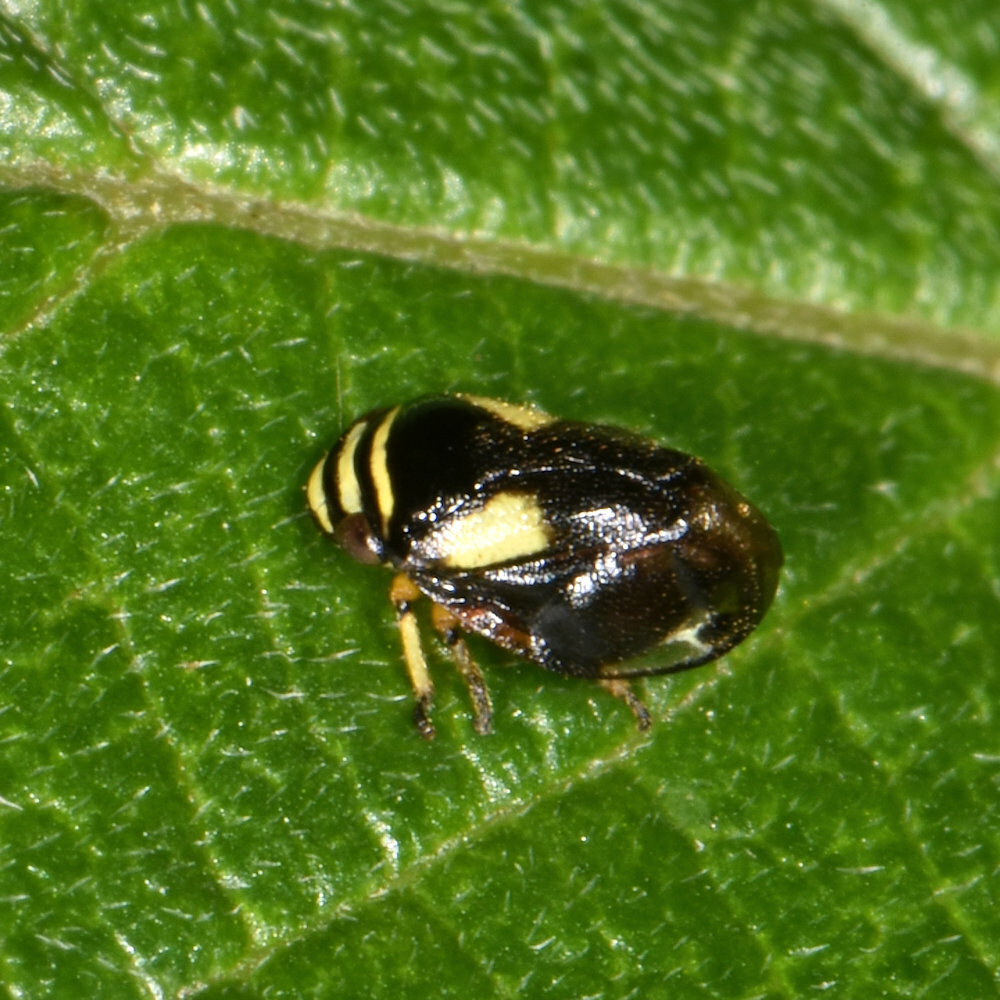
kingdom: Animalia
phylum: Arthropoda
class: Insecta
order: Hemiptera
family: Clastopteridae
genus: Clastoptera
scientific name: Clastoptera proteus
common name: Dogwood spittlebug
